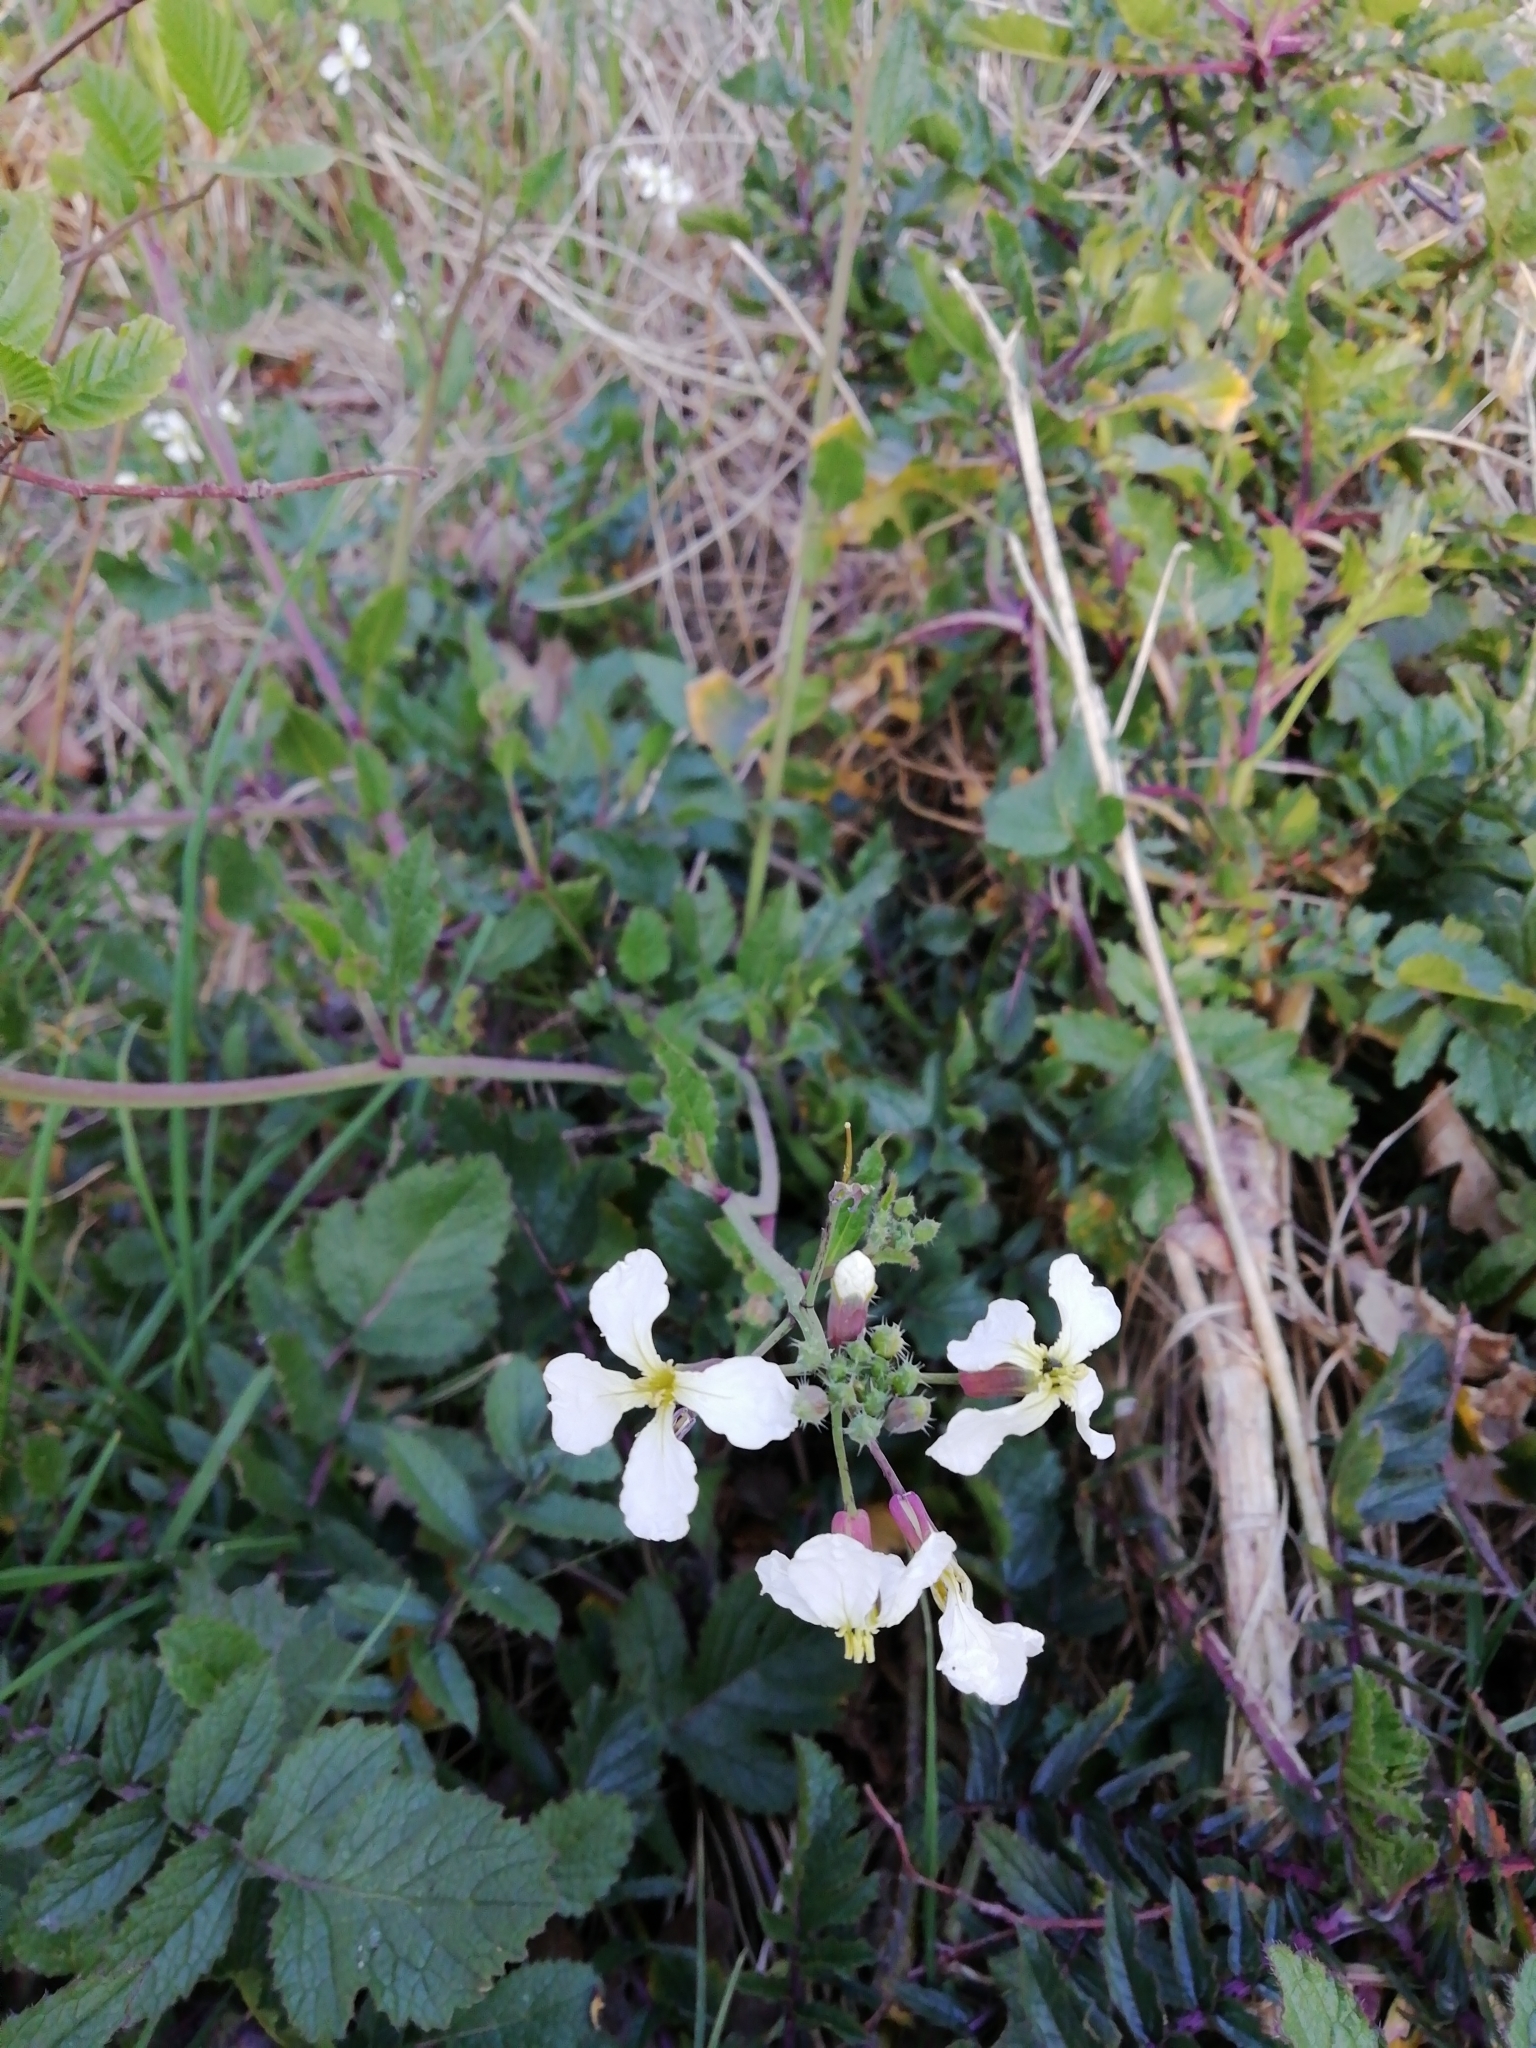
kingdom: Plantae
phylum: Tracheophyta
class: Magnoliopsida
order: Brassicales
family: Brassicaceae
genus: Raphanus
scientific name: Raphanus raphanistrum
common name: Wild radish
